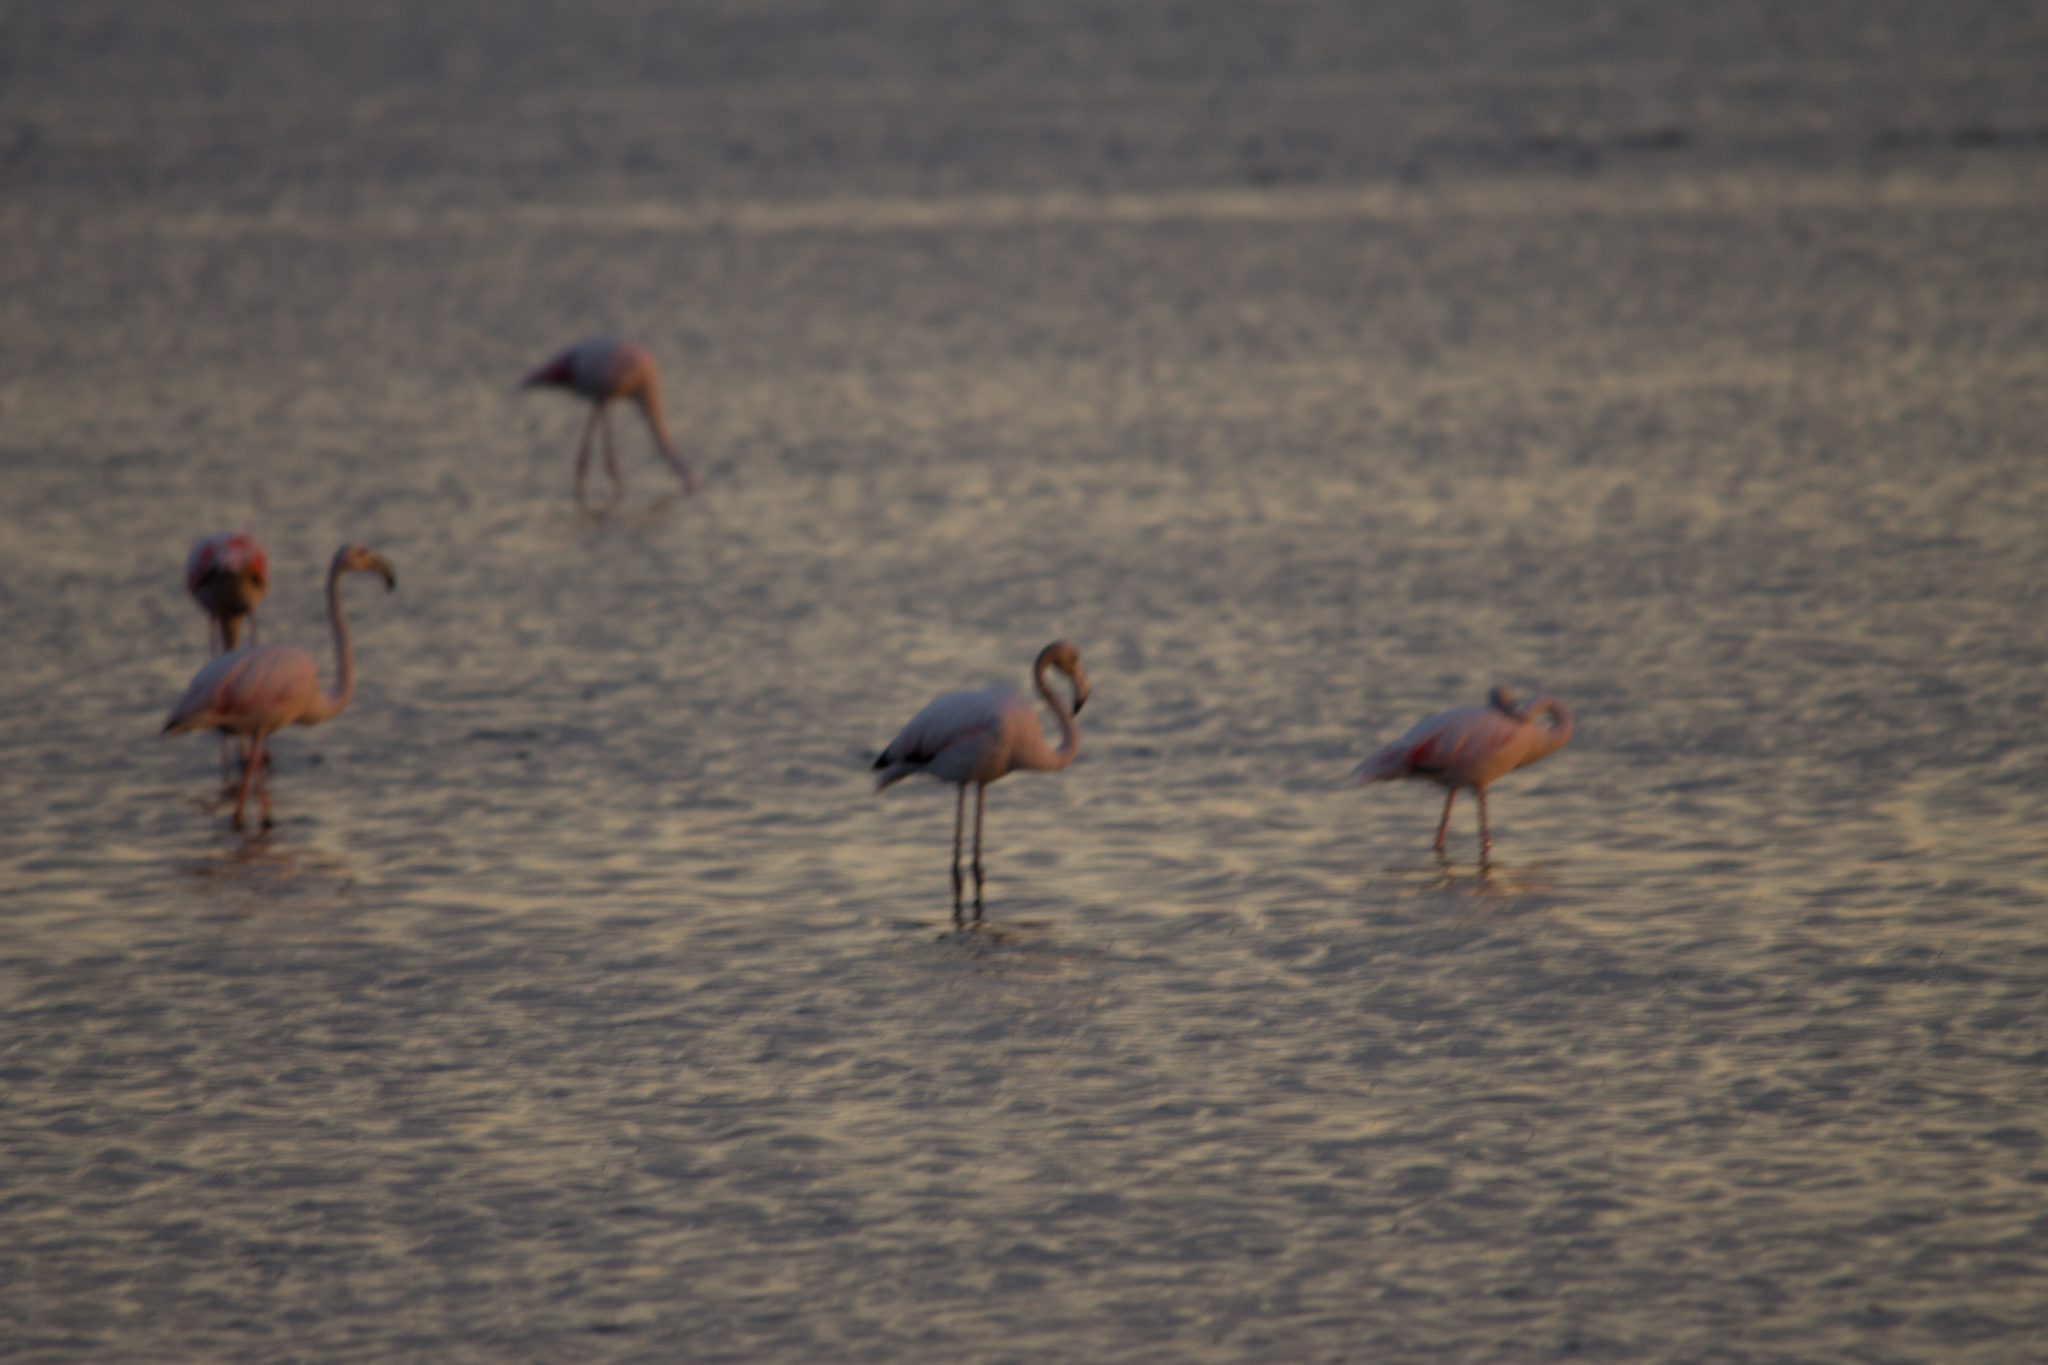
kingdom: Animalia
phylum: Chordata
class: Aves
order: Phoenicopteriformes
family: Phoenicopteridae
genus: Phoenicopterus
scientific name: Phoenicopterus roseus
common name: Greater flamingo
